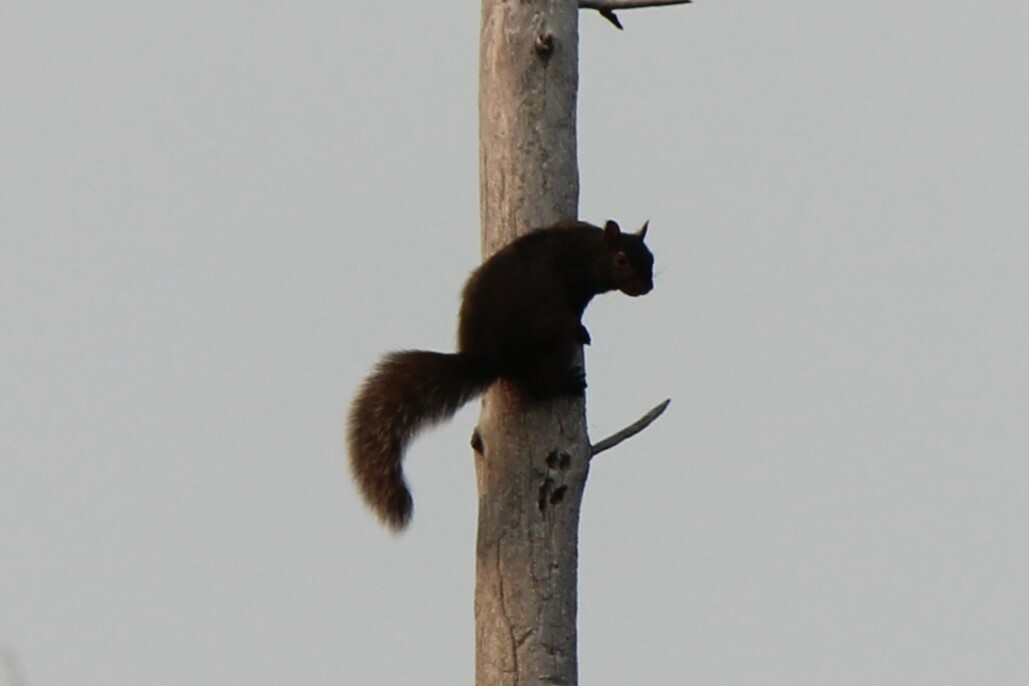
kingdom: Animalia
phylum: Chordata
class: Mammalia
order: Rodentia
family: Sciuridae
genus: Sciurus
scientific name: Sciurus carolinensis
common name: Eastern gray squirrel
